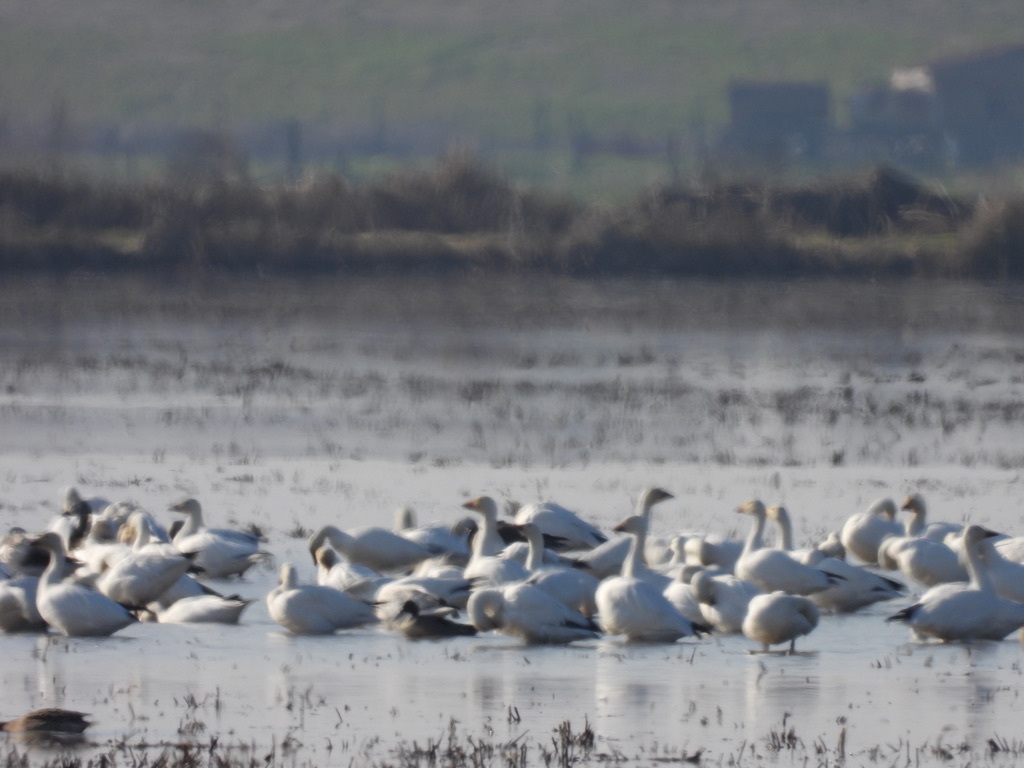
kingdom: Animalia
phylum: Chordata
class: Aves
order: Anseriformes
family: Anatidae
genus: Anser
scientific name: Anser caerulescens
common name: Snow goose
